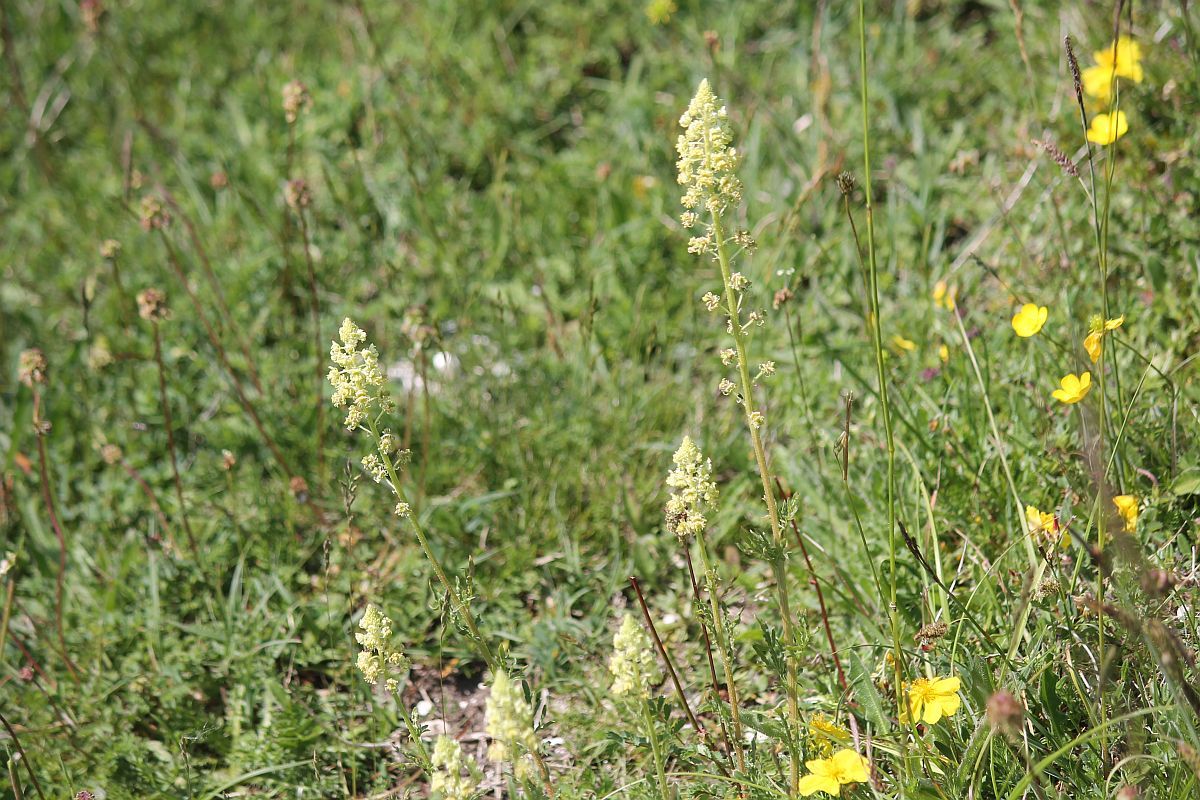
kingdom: Plantae
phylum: Tracheophyta
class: Magnoliopsida
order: Brassicales
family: Resedaceae
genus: Reseda
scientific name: Reseda lutea
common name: Wild mignonette
